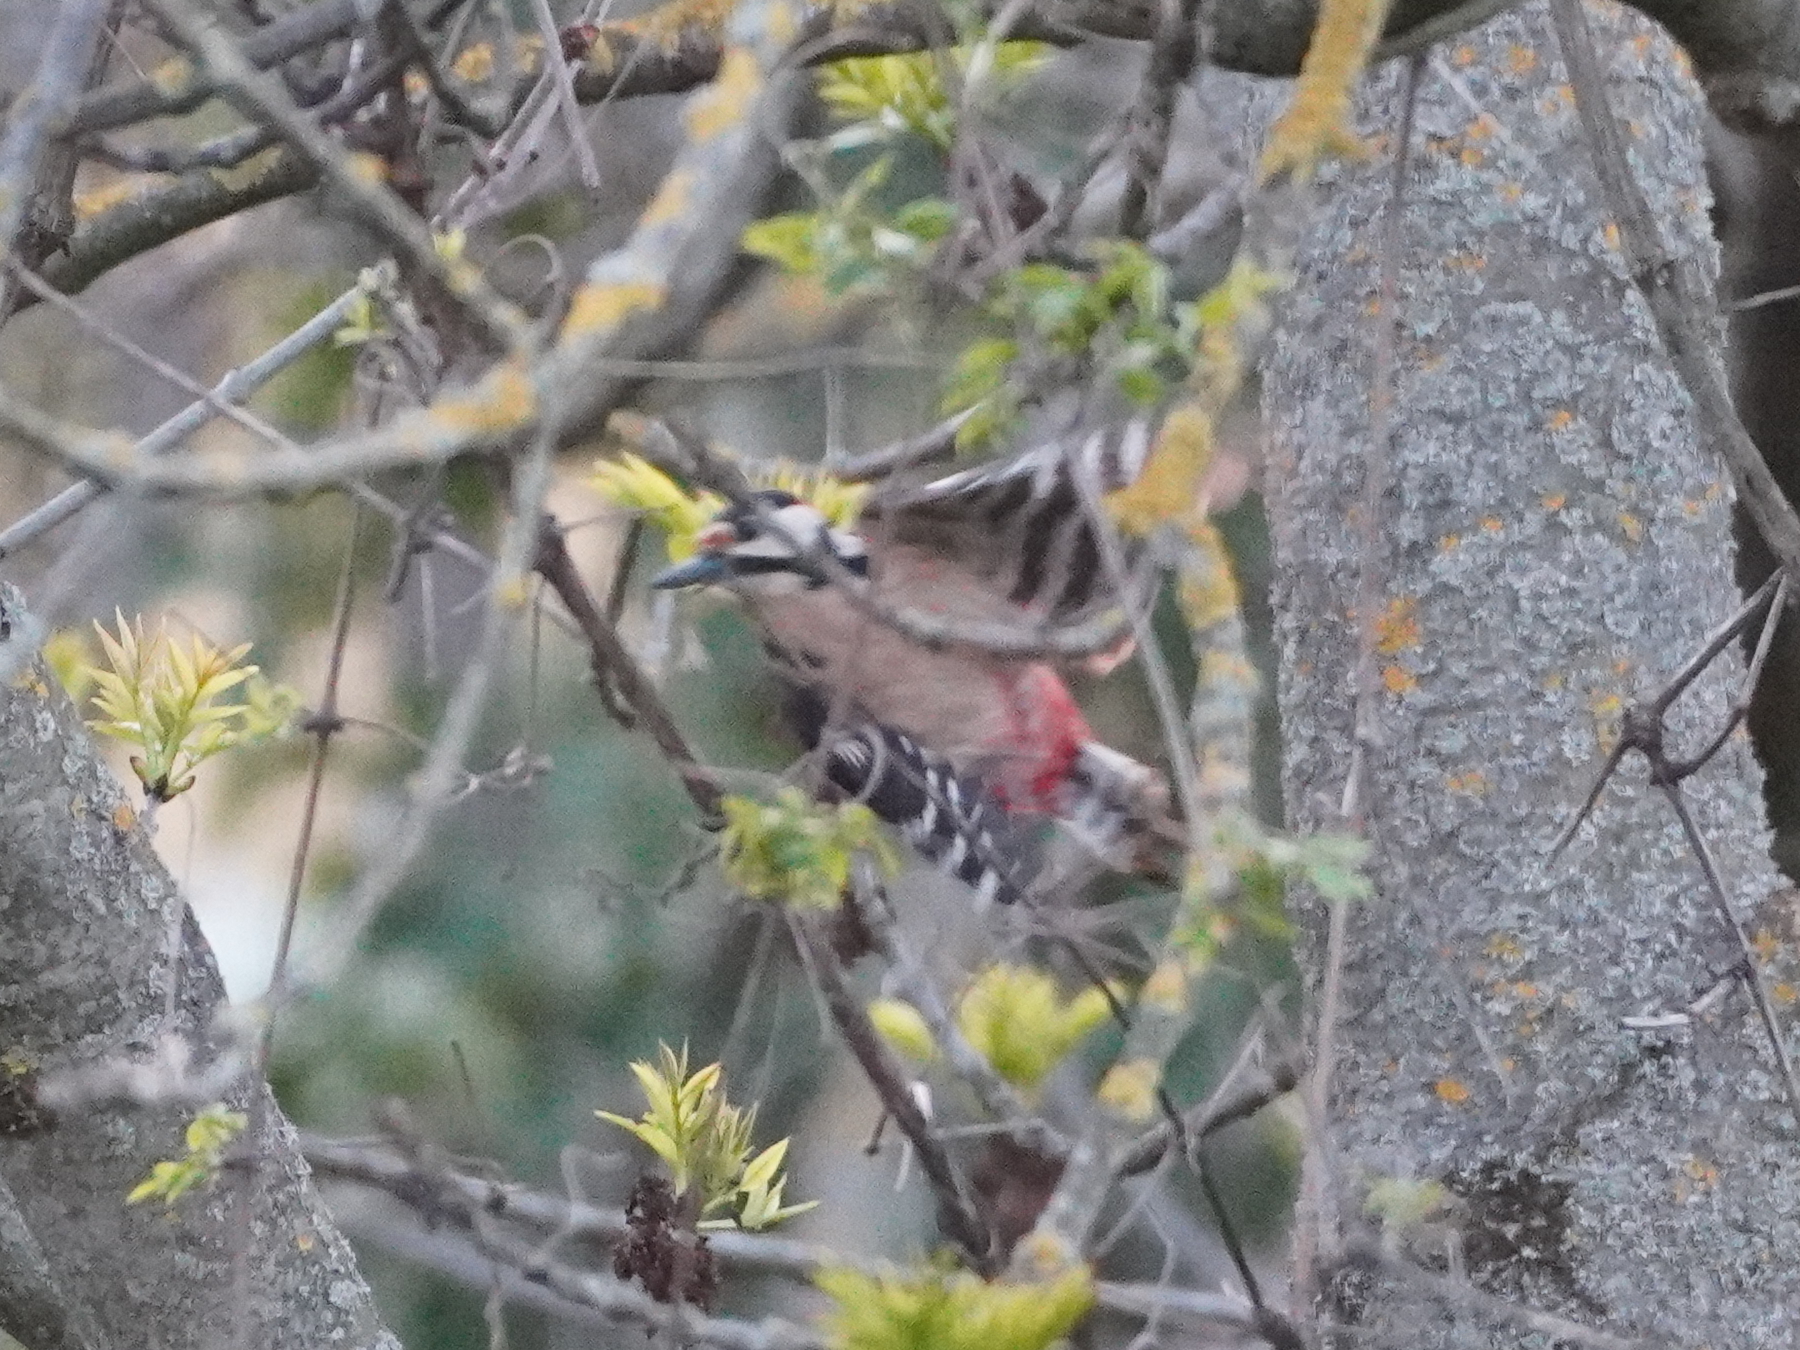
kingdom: Animalia
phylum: Chordata
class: Aves
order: Piciformes
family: Picidae
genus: Dendrocopos
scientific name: Dendrocopos major
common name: Great spotted woodpecker
